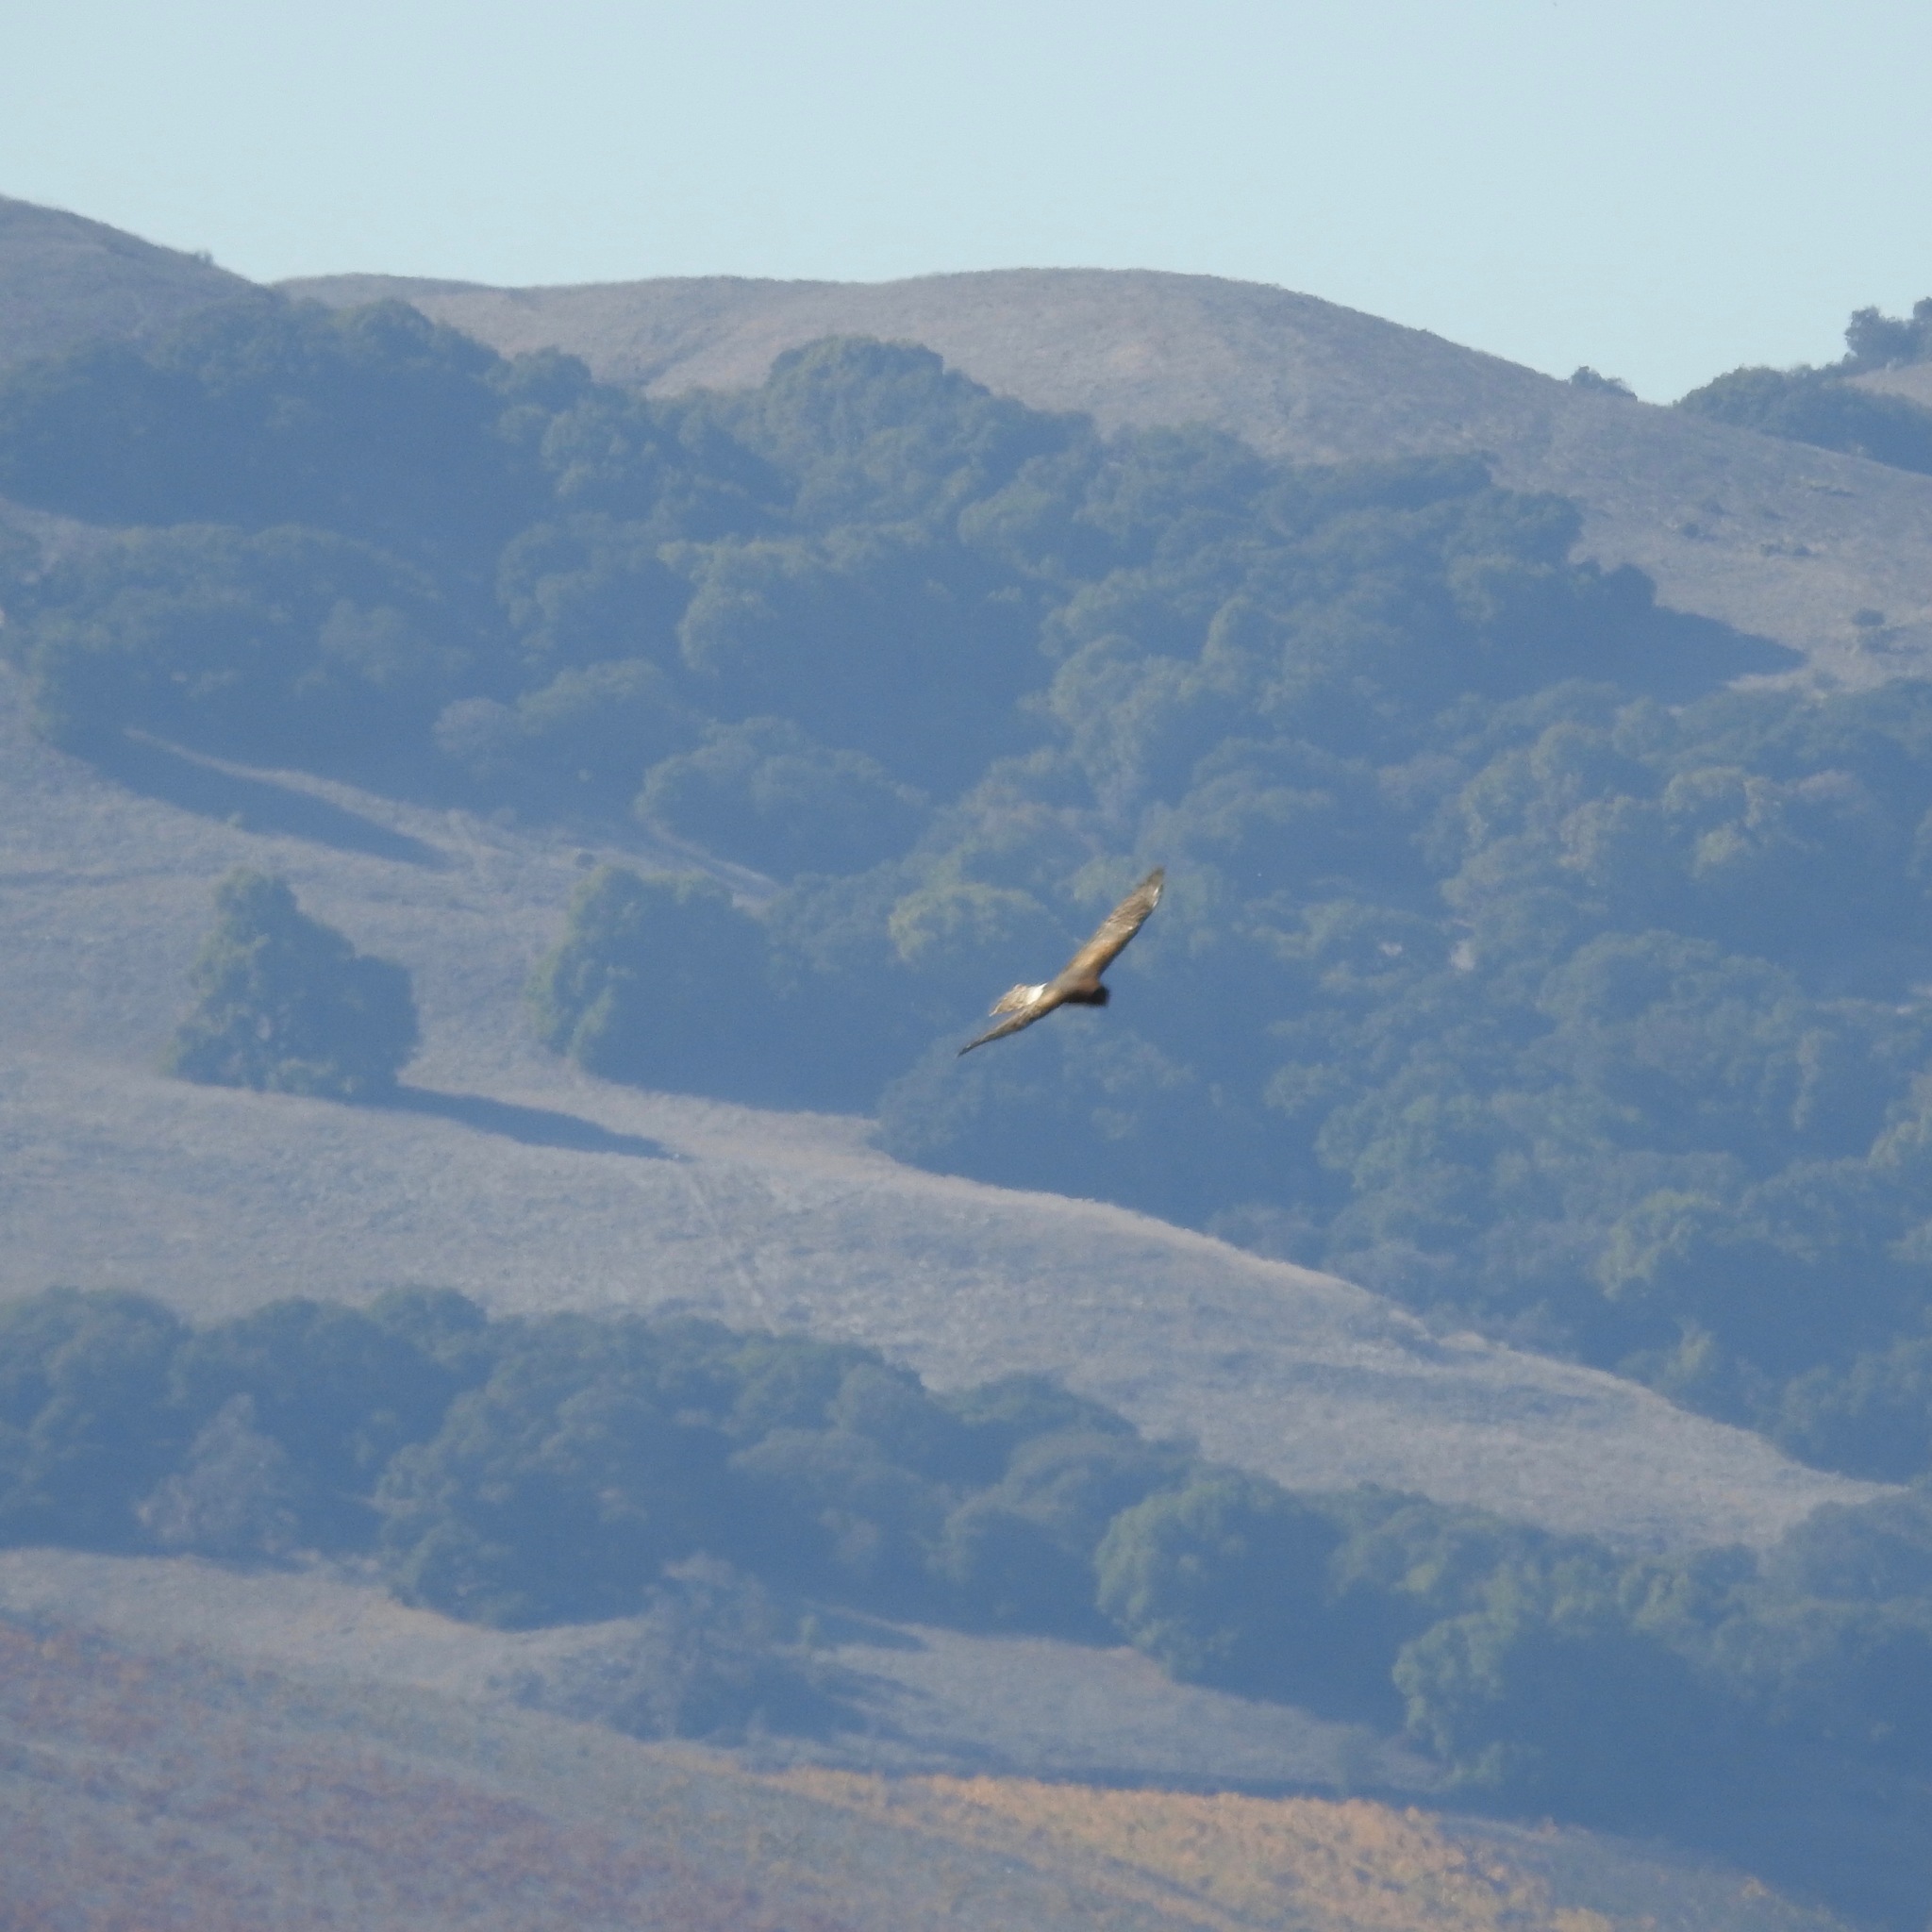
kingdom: Animalia
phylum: Chordata
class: Aves
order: Accipitriformes
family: Accipitridae
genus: Circus
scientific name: Circus cyaneus
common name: Hen harrier
